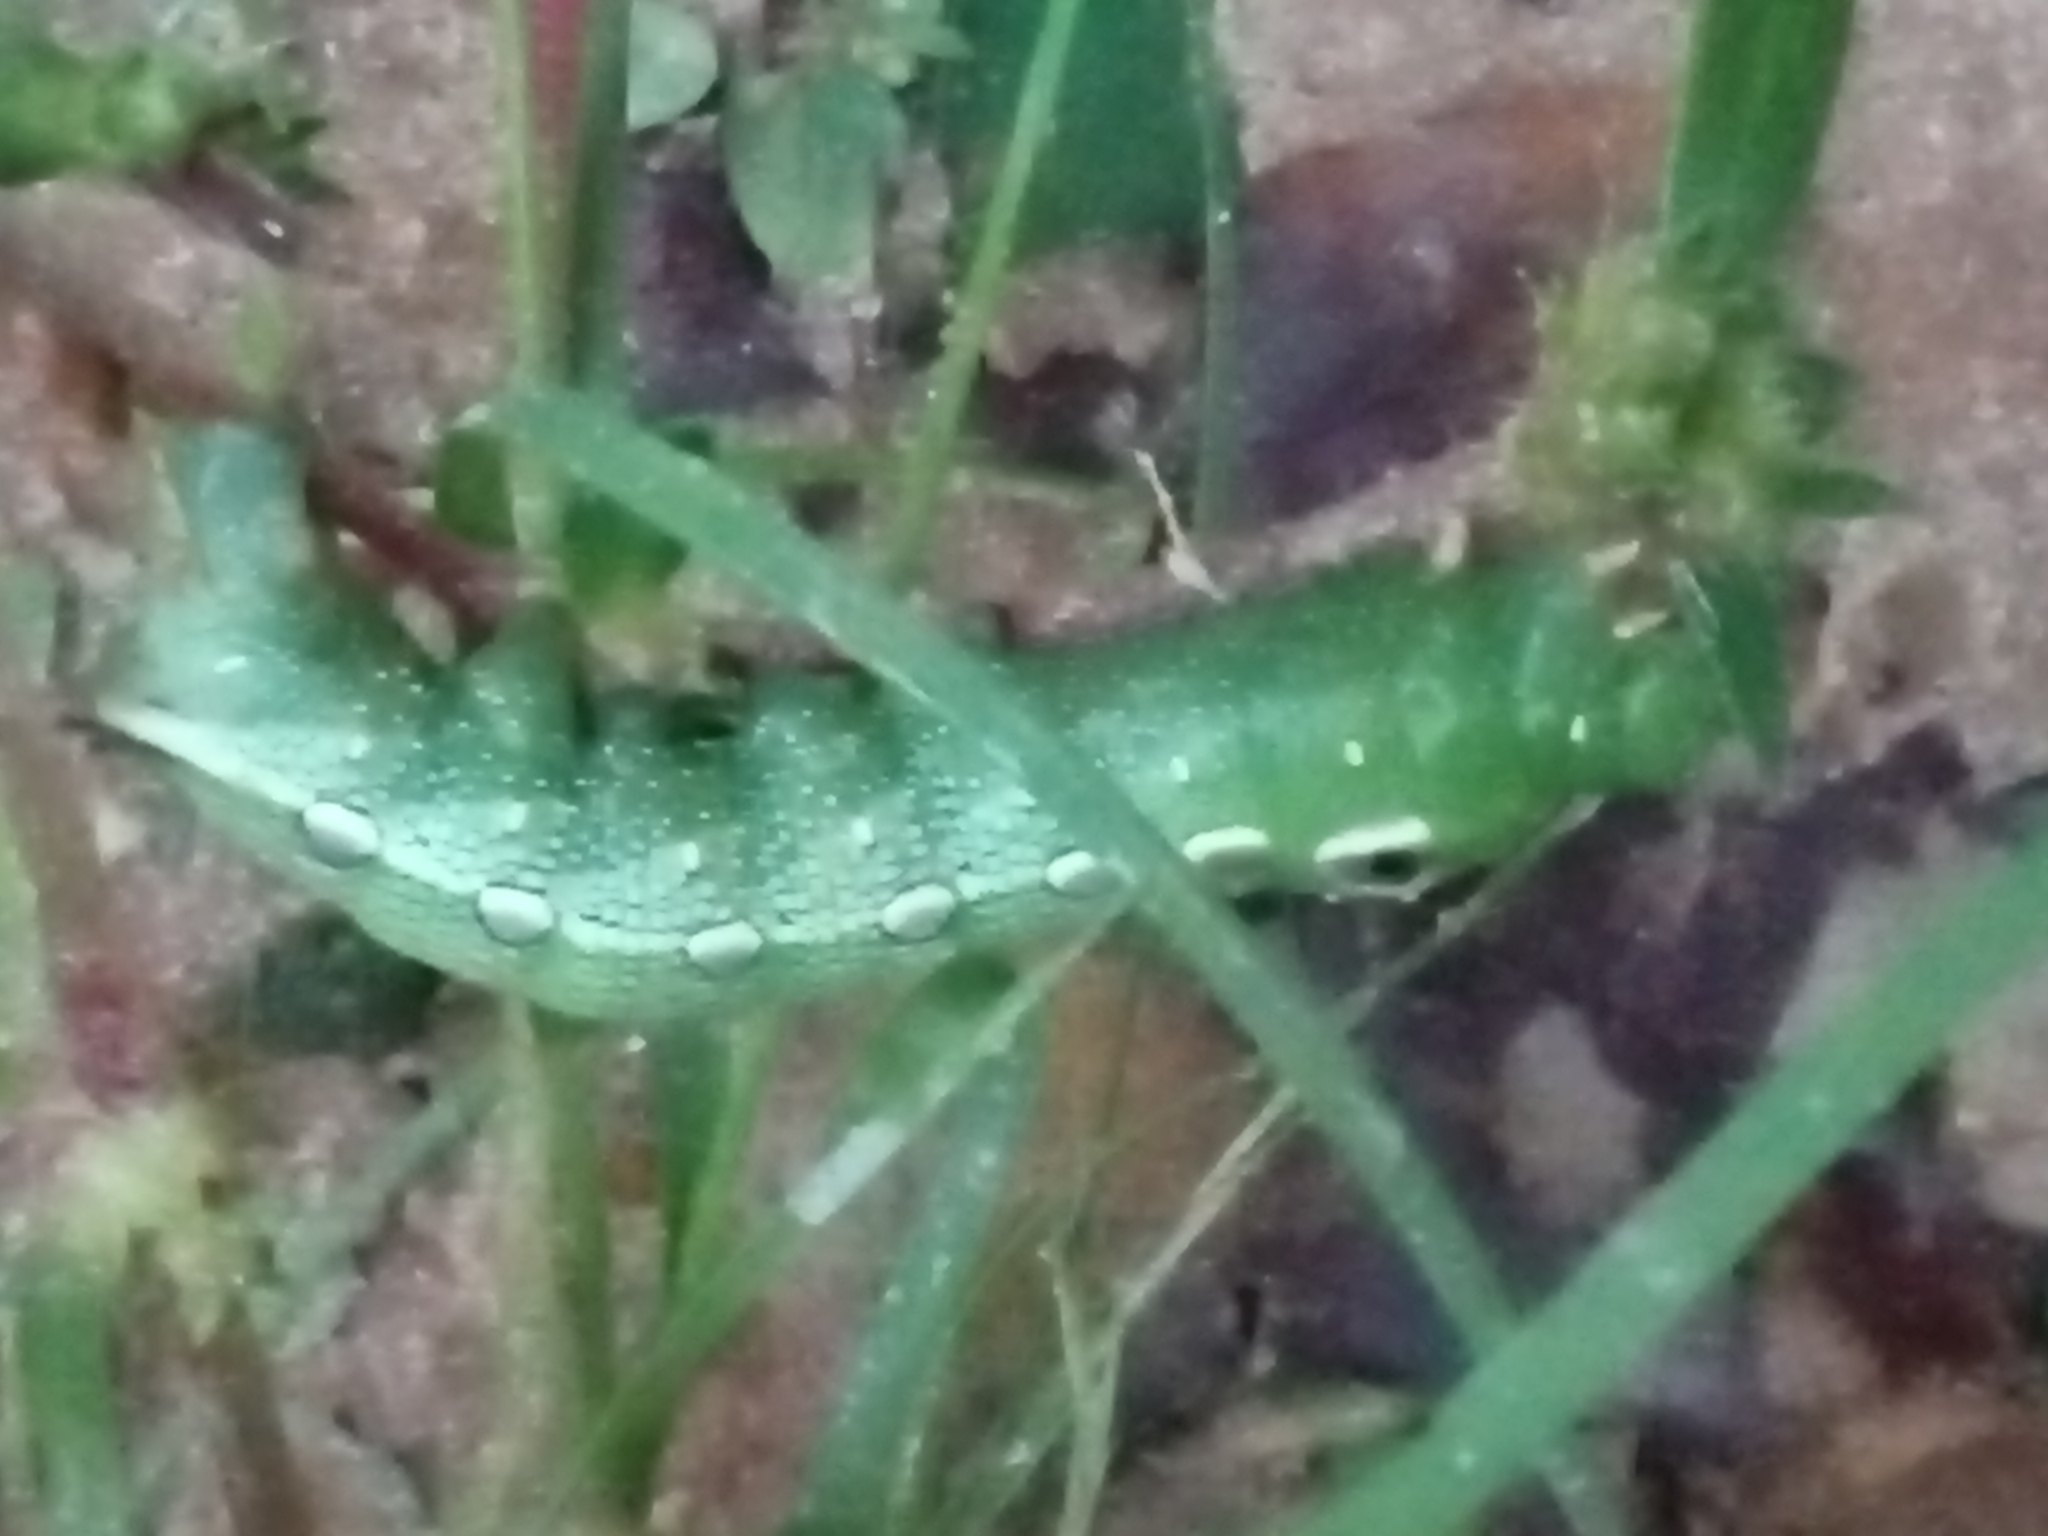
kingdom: Animalia
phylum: Arthropoda
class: Insecta
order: Lepidoptera
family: Sphingidae
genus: Xylophanes
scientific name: Xylophanes tersa
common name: Tersa sphinx
